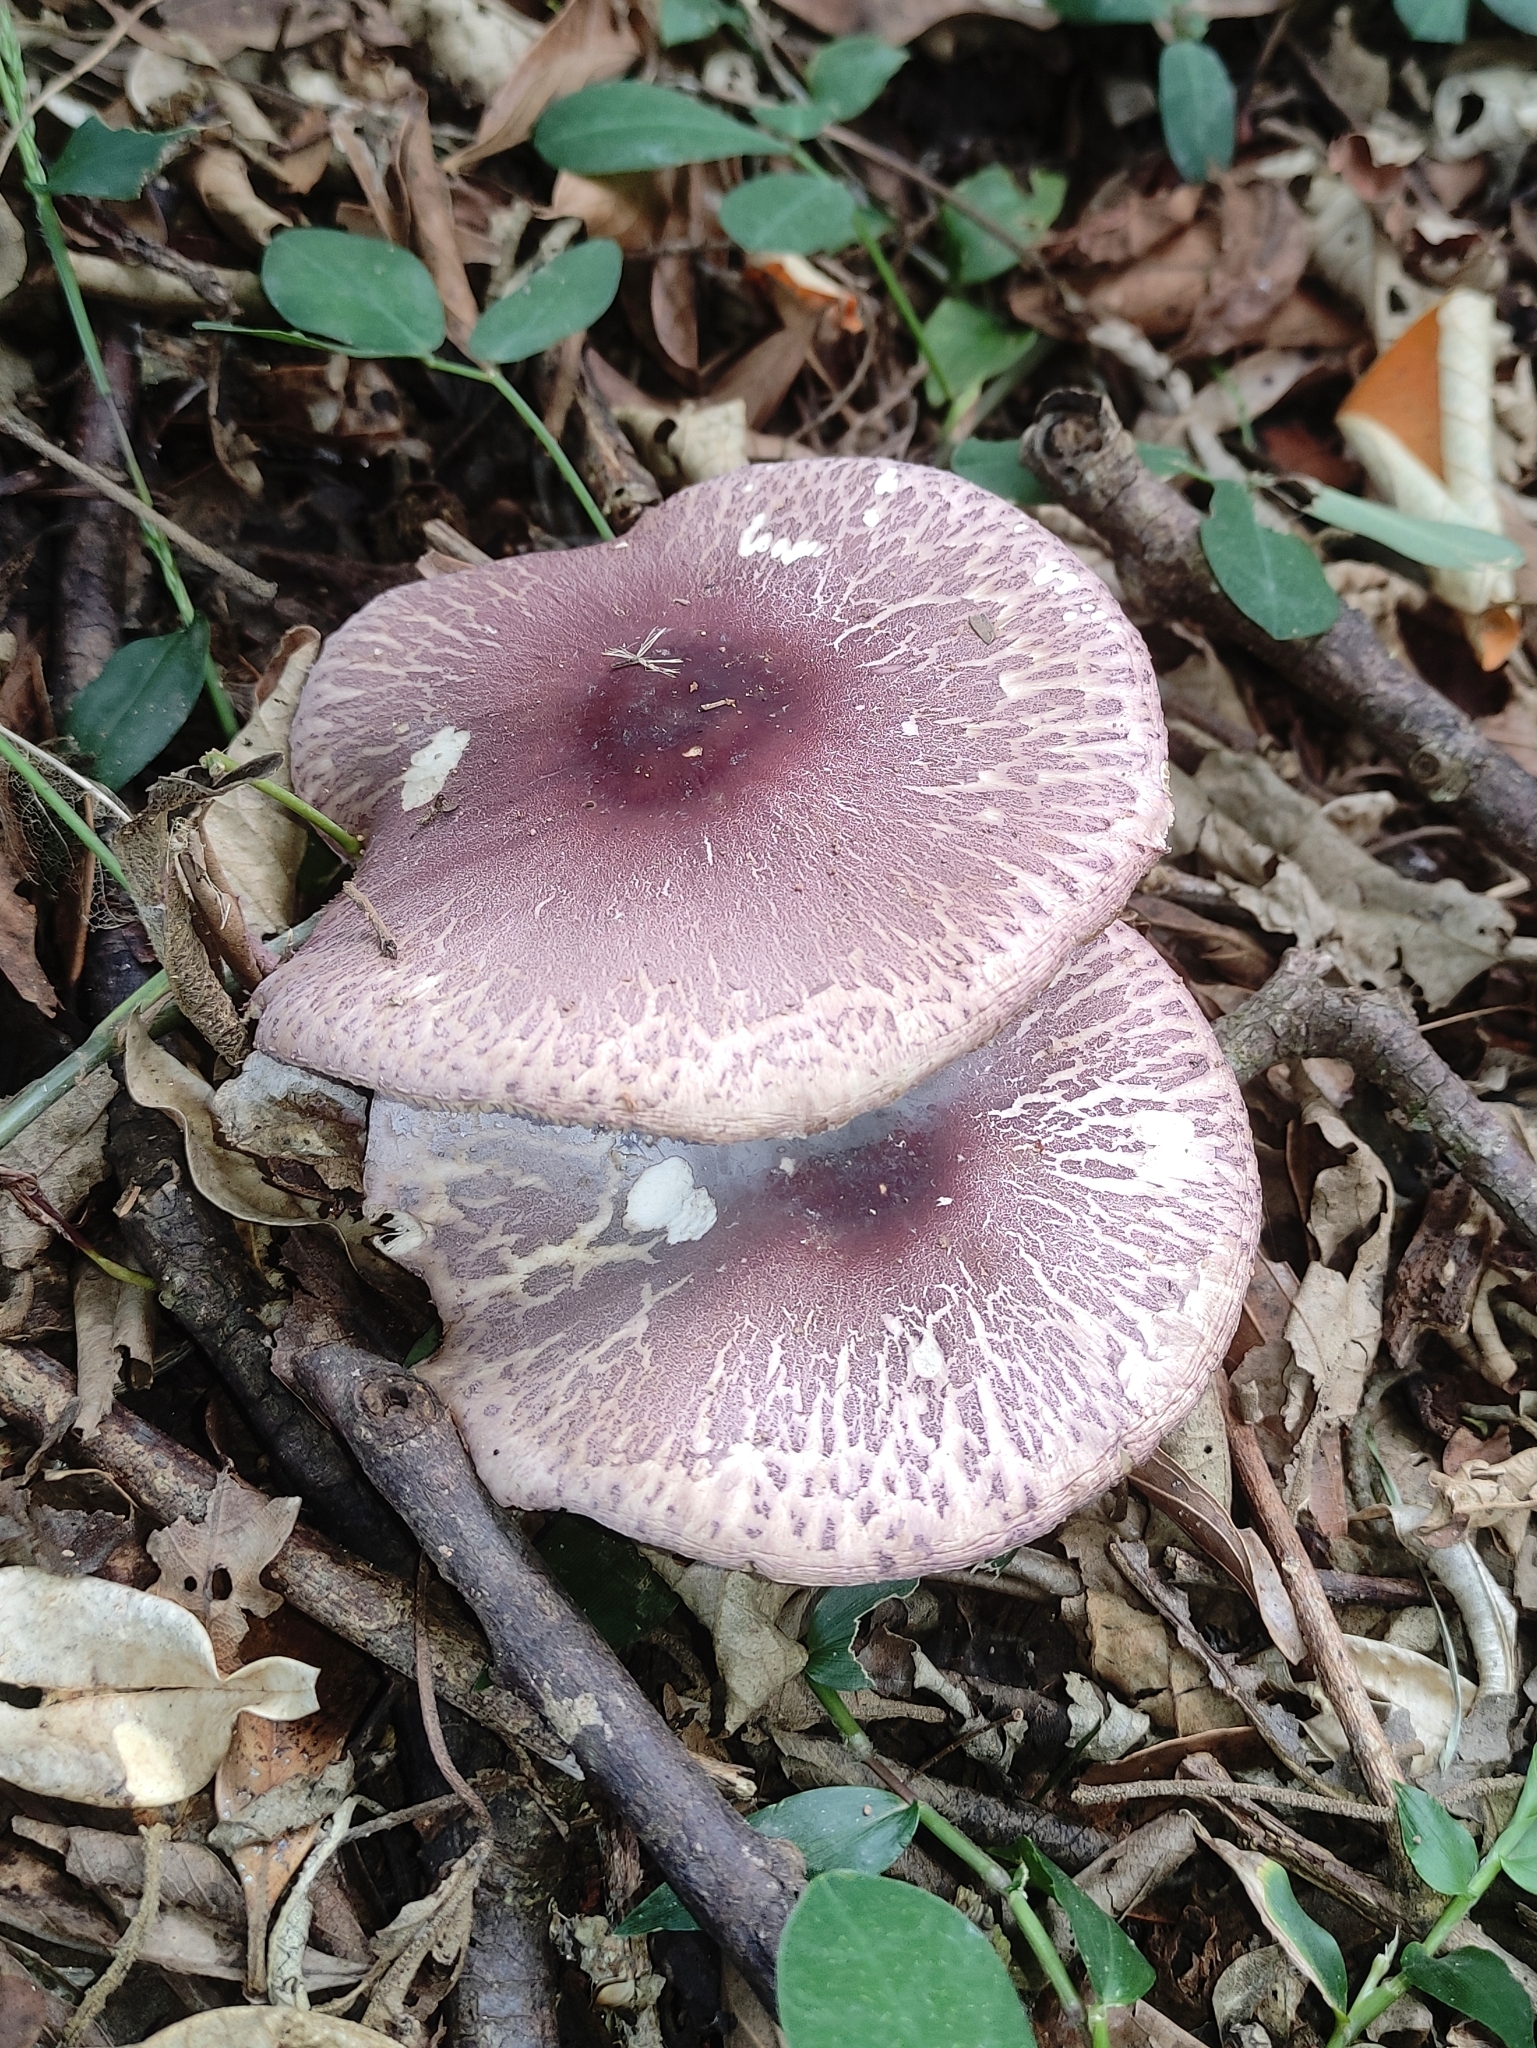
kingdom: Fungi
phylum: Basidiomycota
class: Agaricomycetes
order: Agaricales
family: Agaricaceae
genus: Leucoagaricus
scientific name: Leucoagaricus lilaceus
